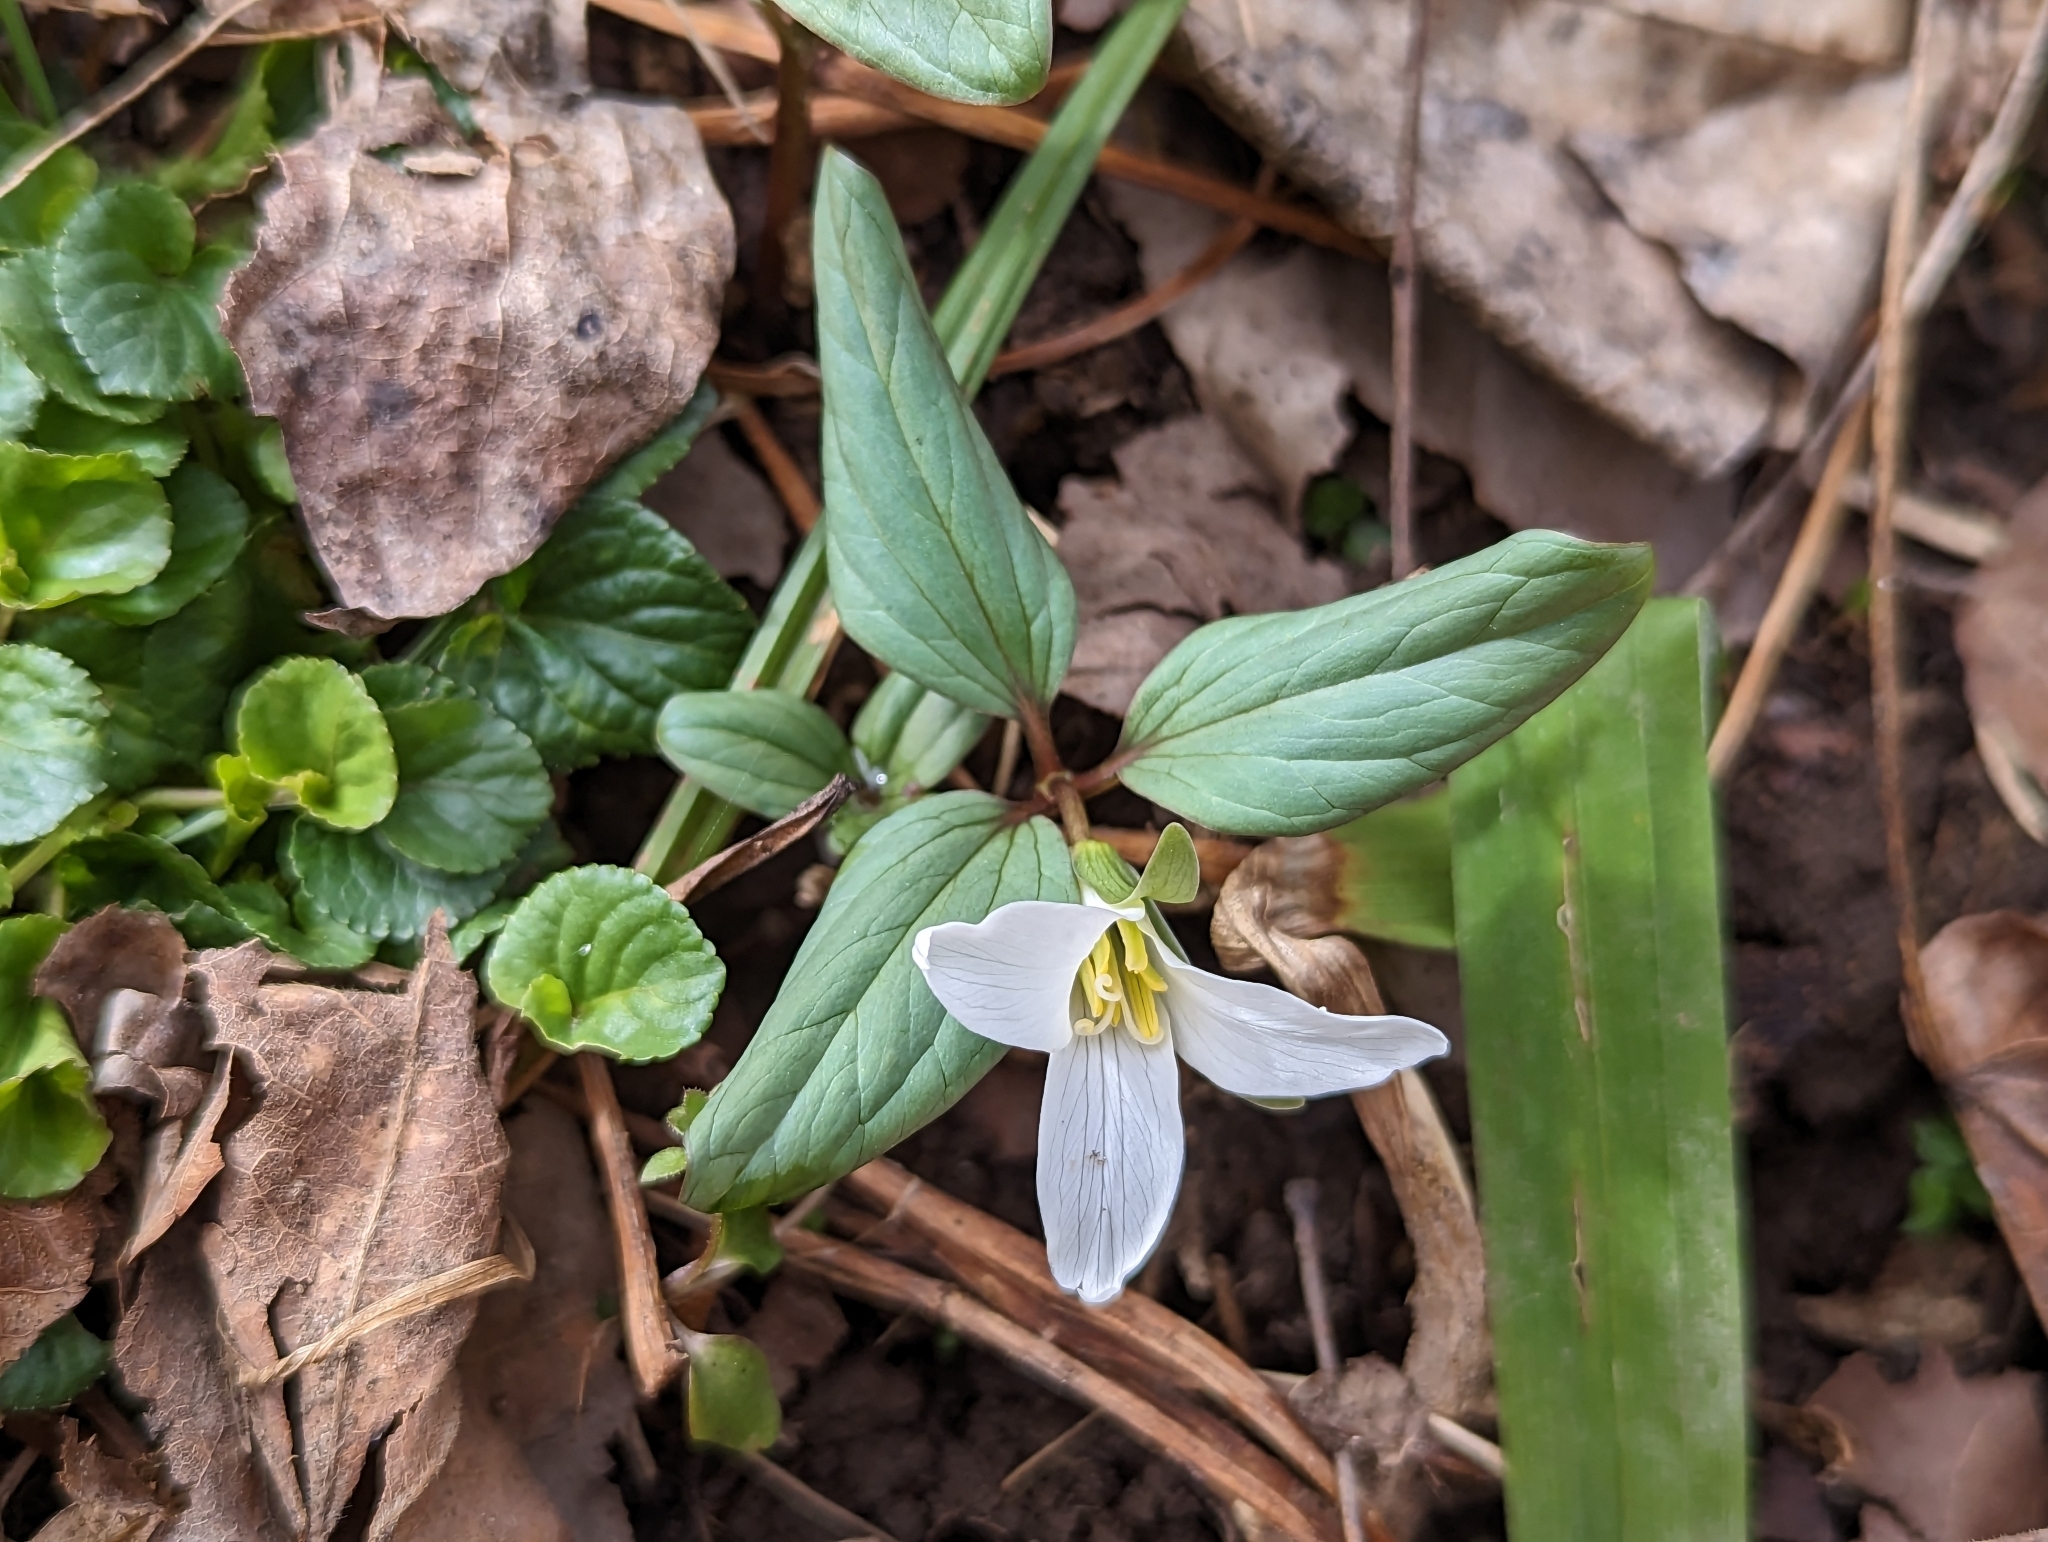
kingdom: Plantae
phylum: Tracheophyta
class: Liliopsida
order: Liliales
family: Melanthiaceae
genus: Trillium
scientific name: Trillium nivale
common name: Dwarf white trillium
